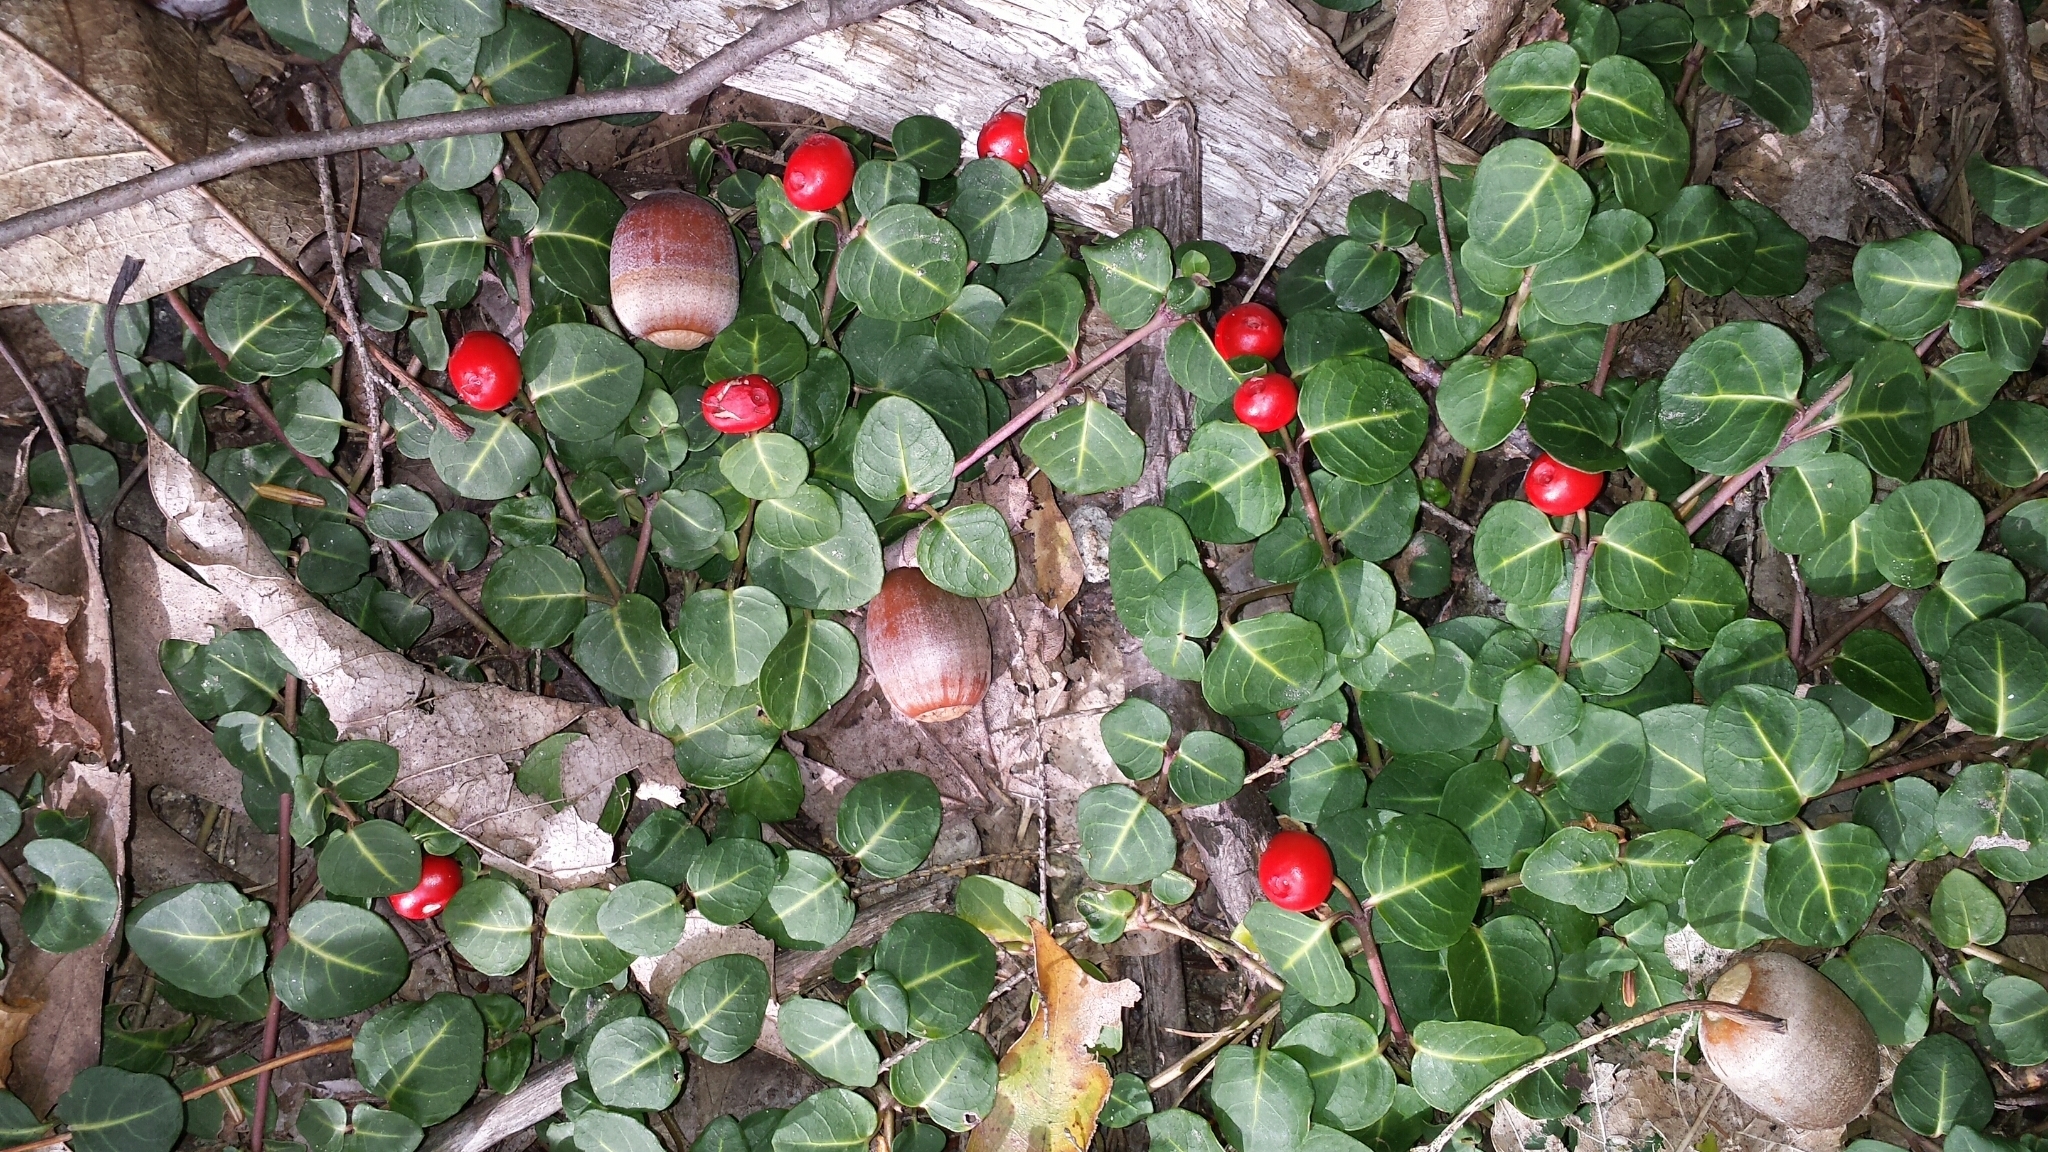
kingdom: Plantae
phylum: Tracheophyta
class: Magnoliopsida
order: Gentianales
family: Rubiaceae
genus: Mitchella
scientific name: Mitchella repens
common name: Partridge-berry
